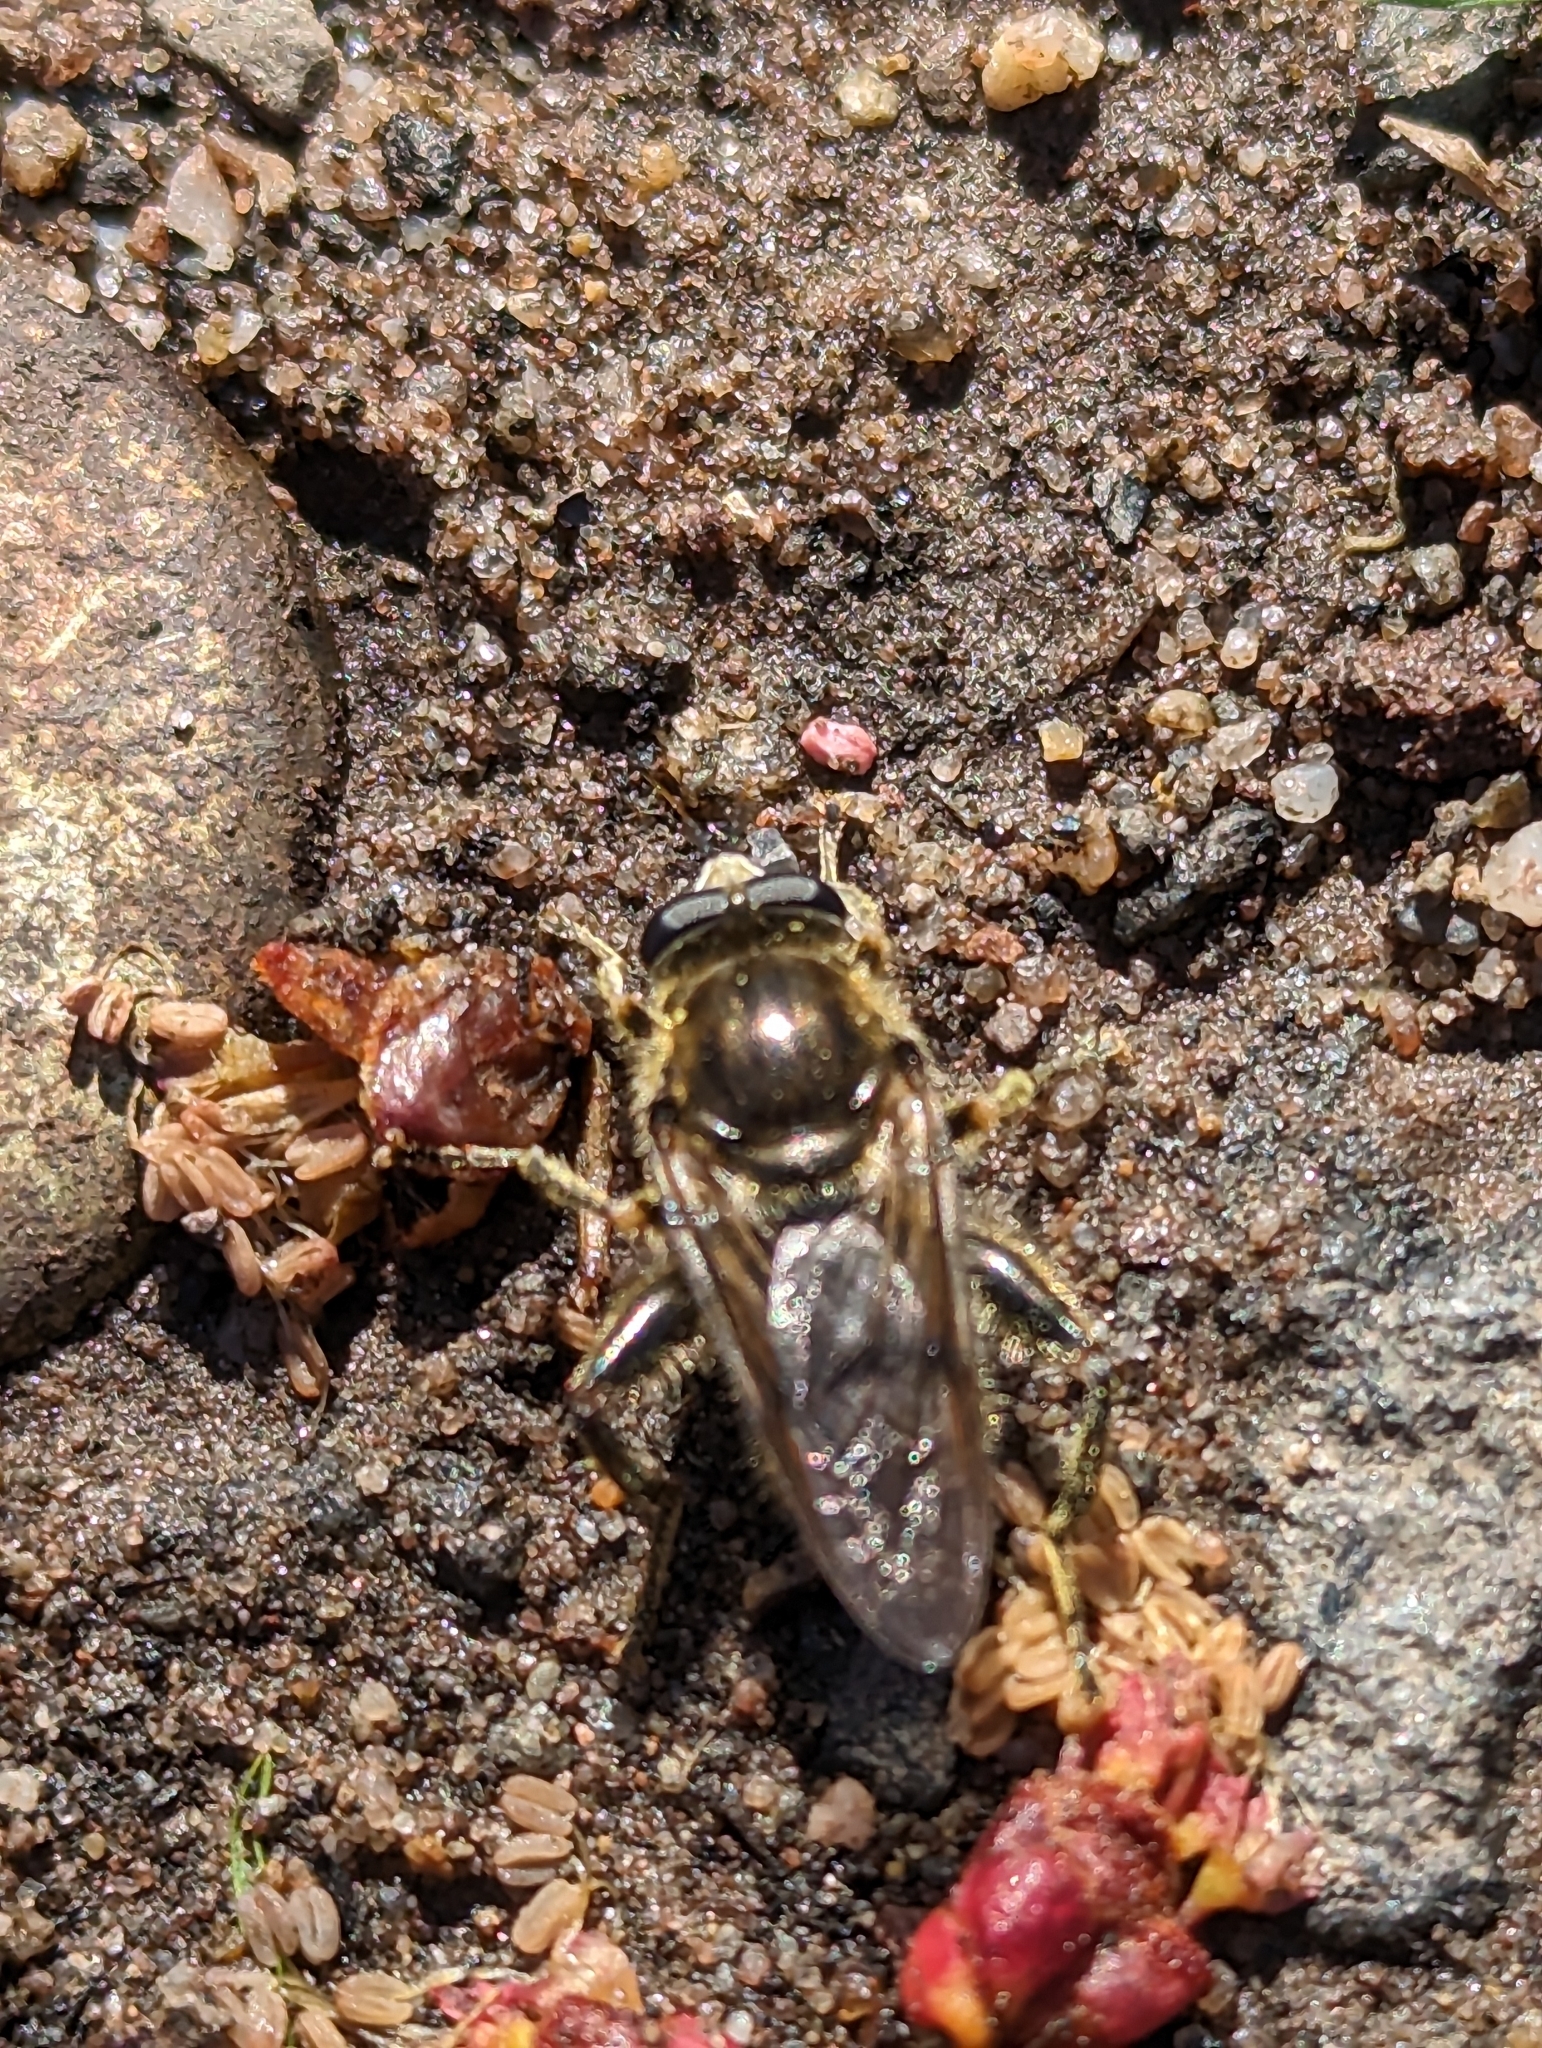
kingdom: Animalia
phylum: Arthropoda
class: Insecta
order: Diptera
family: Syrphidae
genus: Brachypalpus
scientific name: Brachypalpus oarus
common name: Eastern catkin fly
